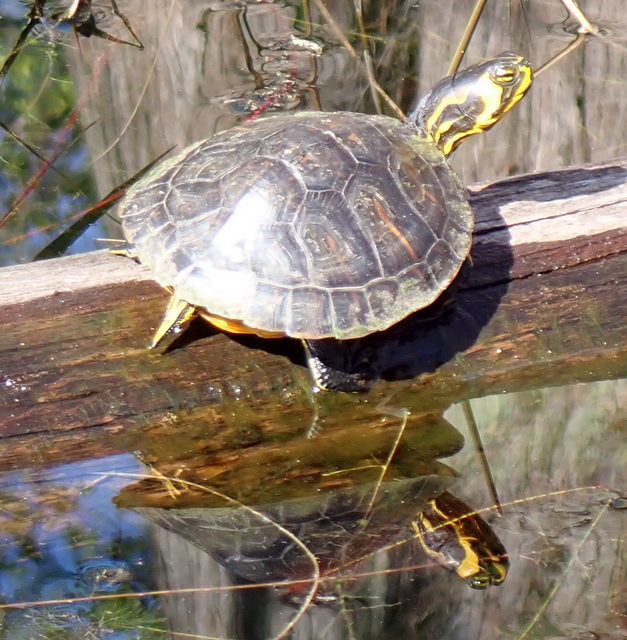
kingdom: Animalia
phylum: Chordata
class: Testudines
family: Emydidae
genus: Trachemys
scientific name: Trachemys scripta
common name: Slider
